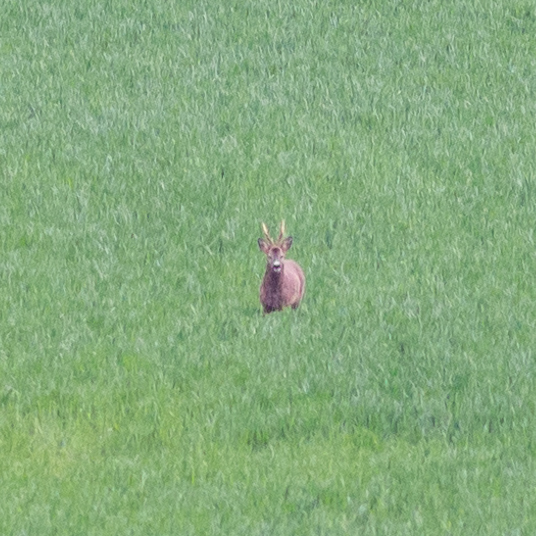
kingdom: Animalia
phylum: Chordata
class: Mammalia
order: Artiodactyla
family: Cervidae
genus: Capreolus
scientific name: Capreolus capreolus
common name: Western roe deer
